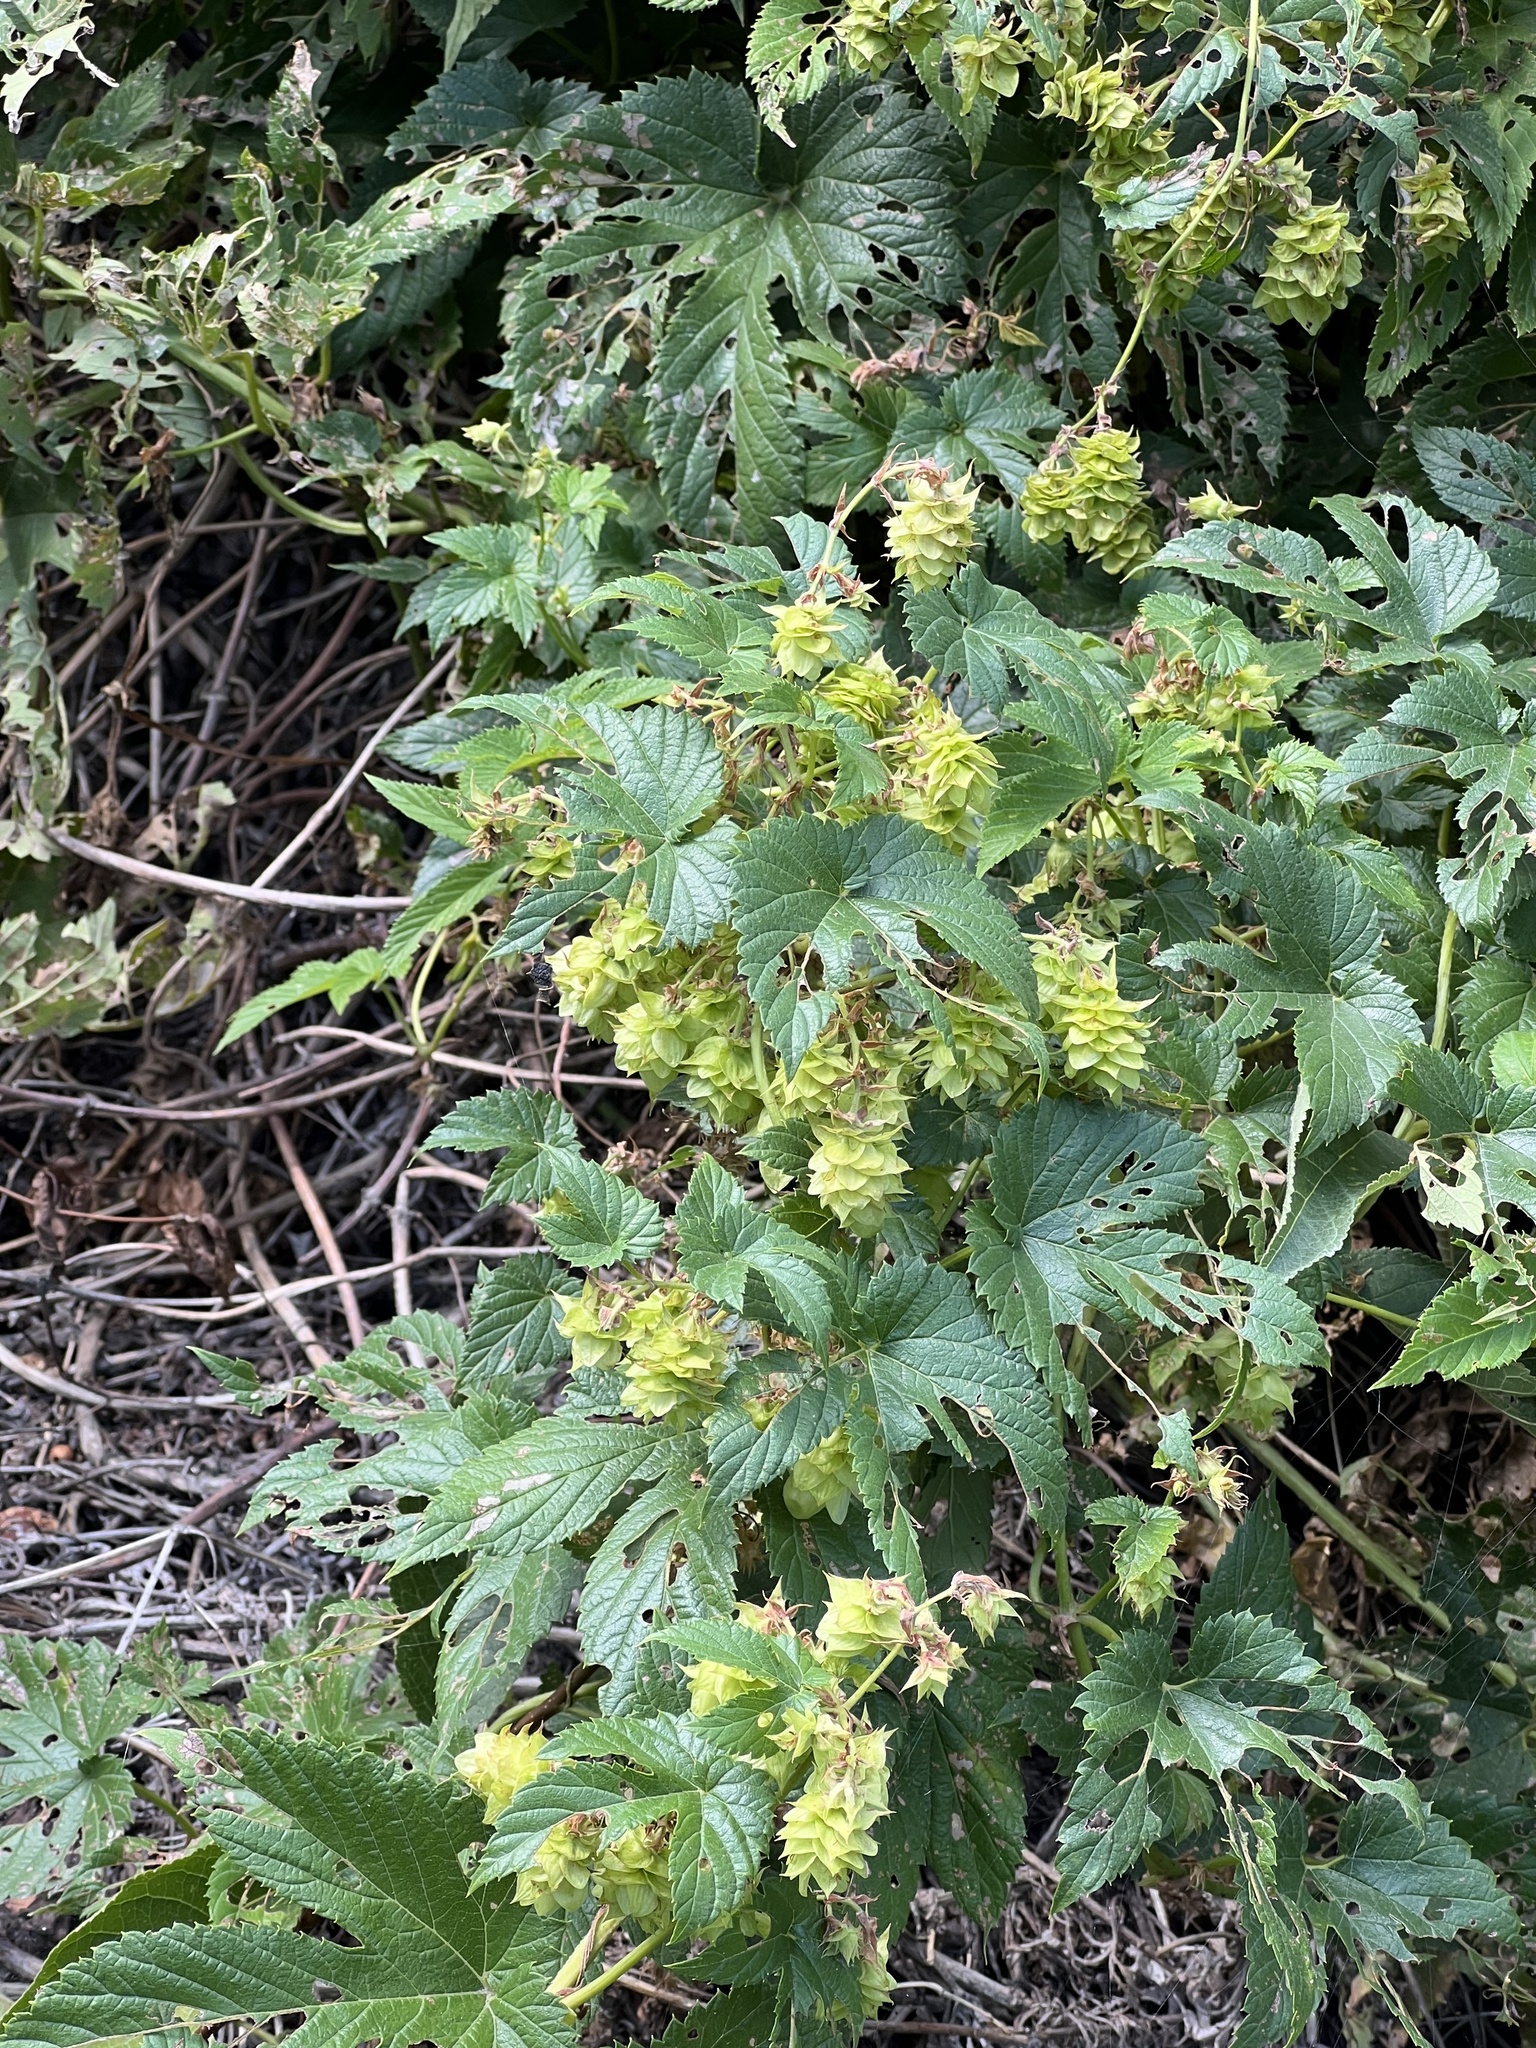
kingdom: Plantae
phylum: Tracheophyta
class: Magnoliopsida
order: Rosales
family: Cannabaceae
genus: Humulus
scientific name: Humulus lupulus
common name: Hop
